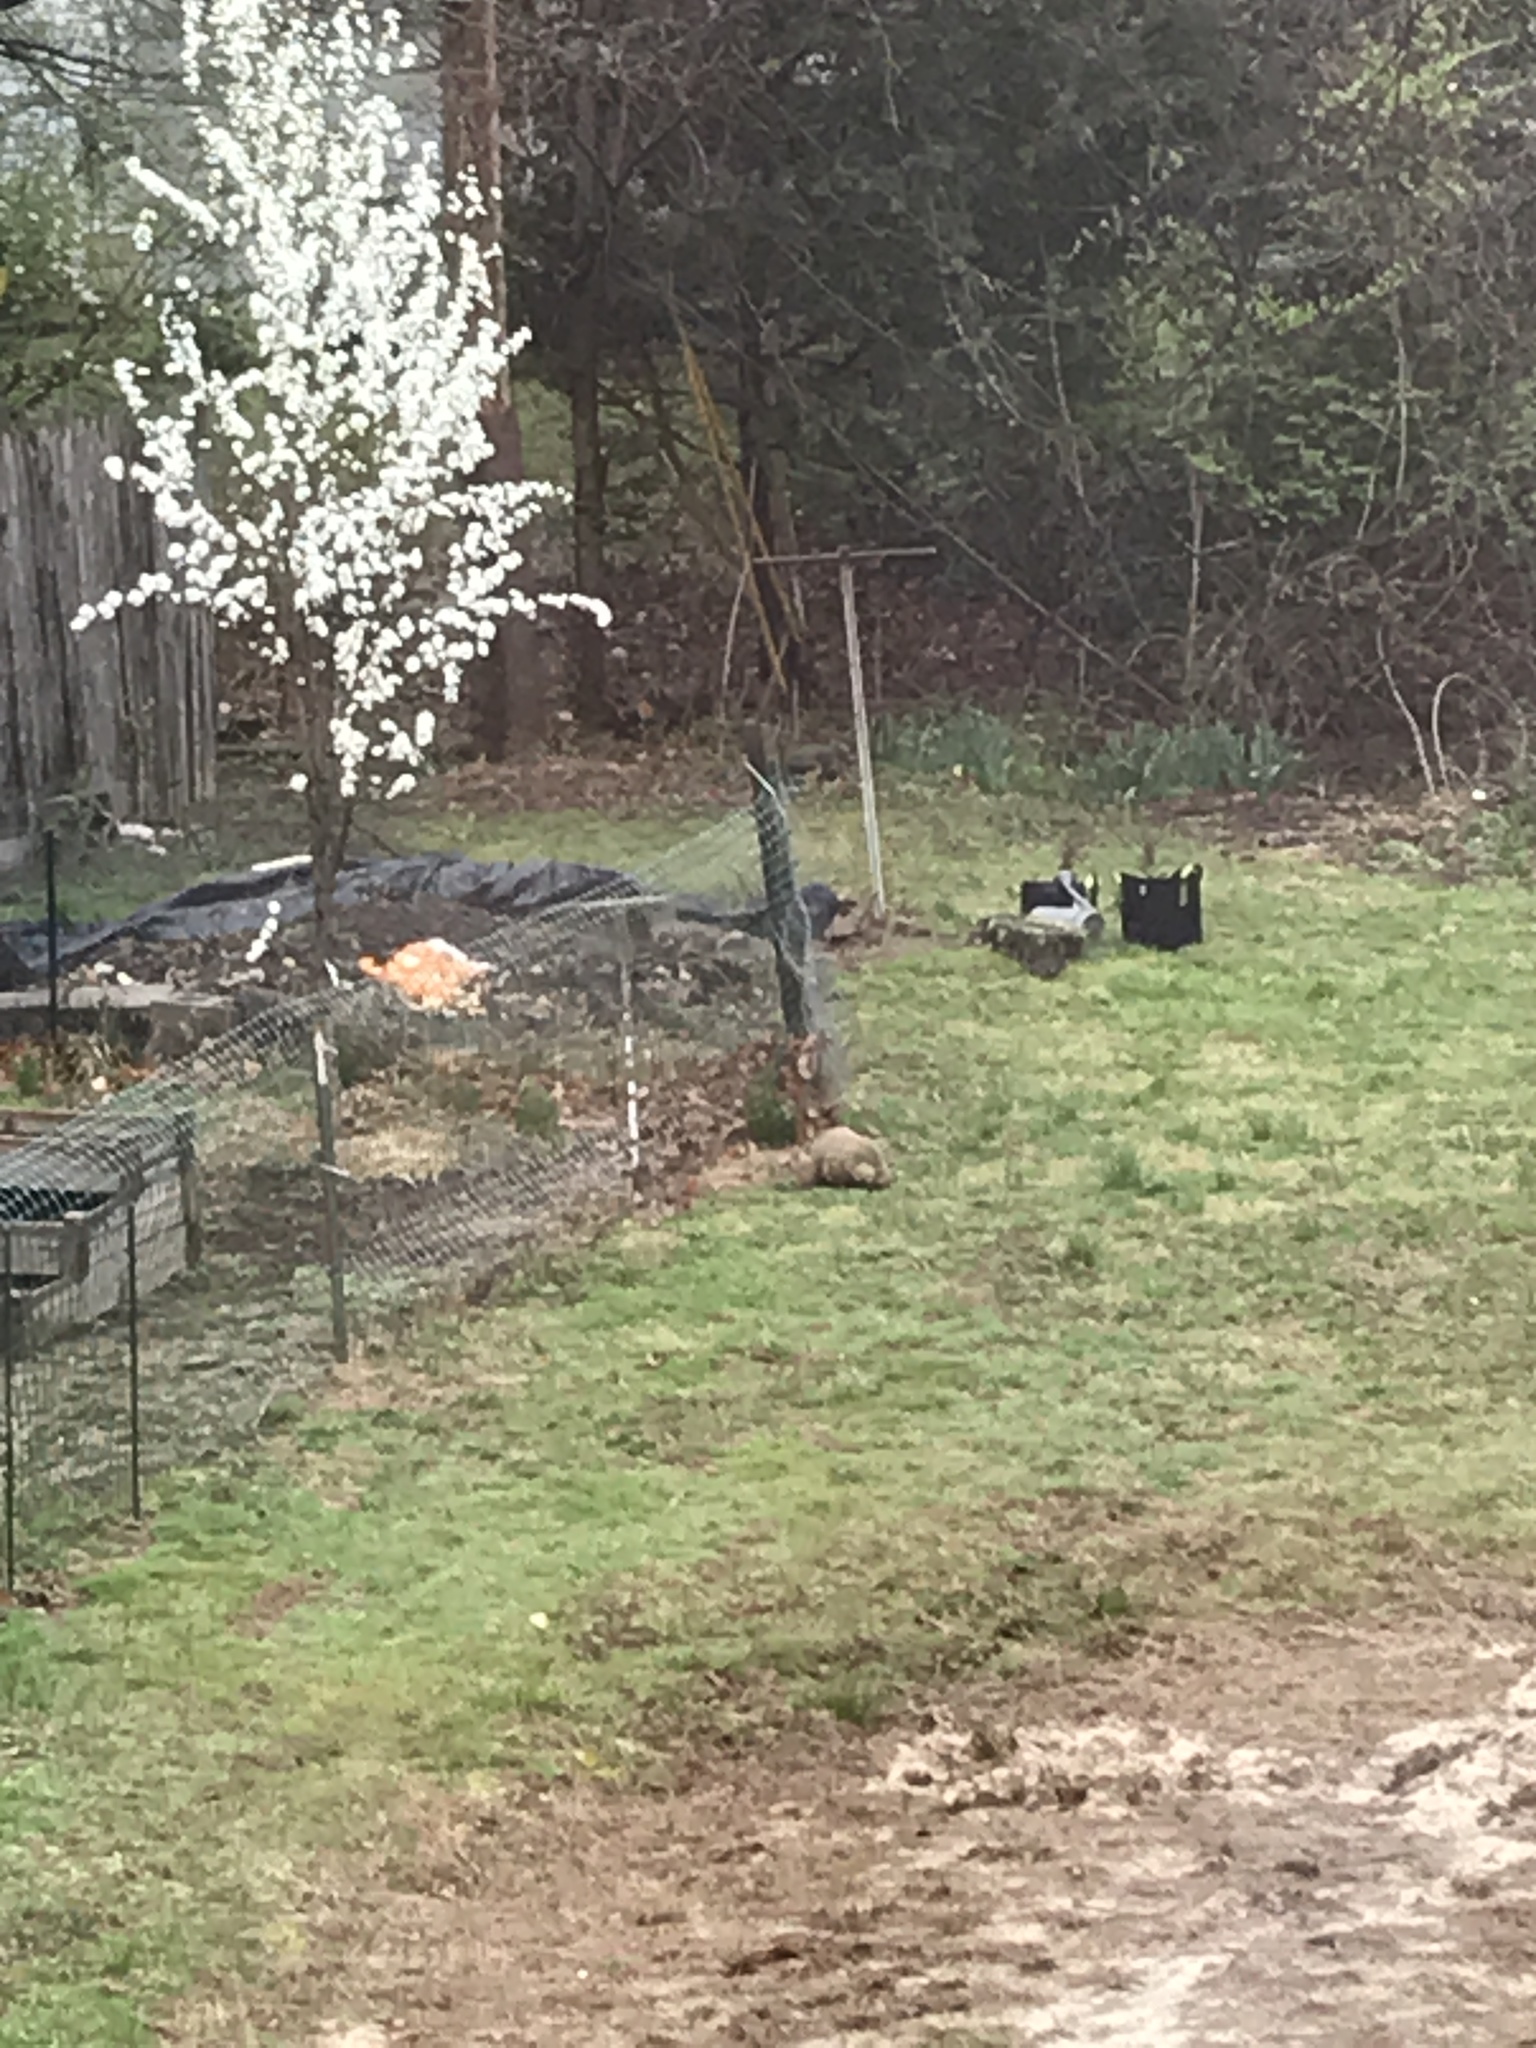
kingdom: Animalia
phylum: Chordata
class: Mammalia
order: Rodentia
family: Sciuridae
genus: Marmota
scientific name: Marmota monax
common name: Groundhog
